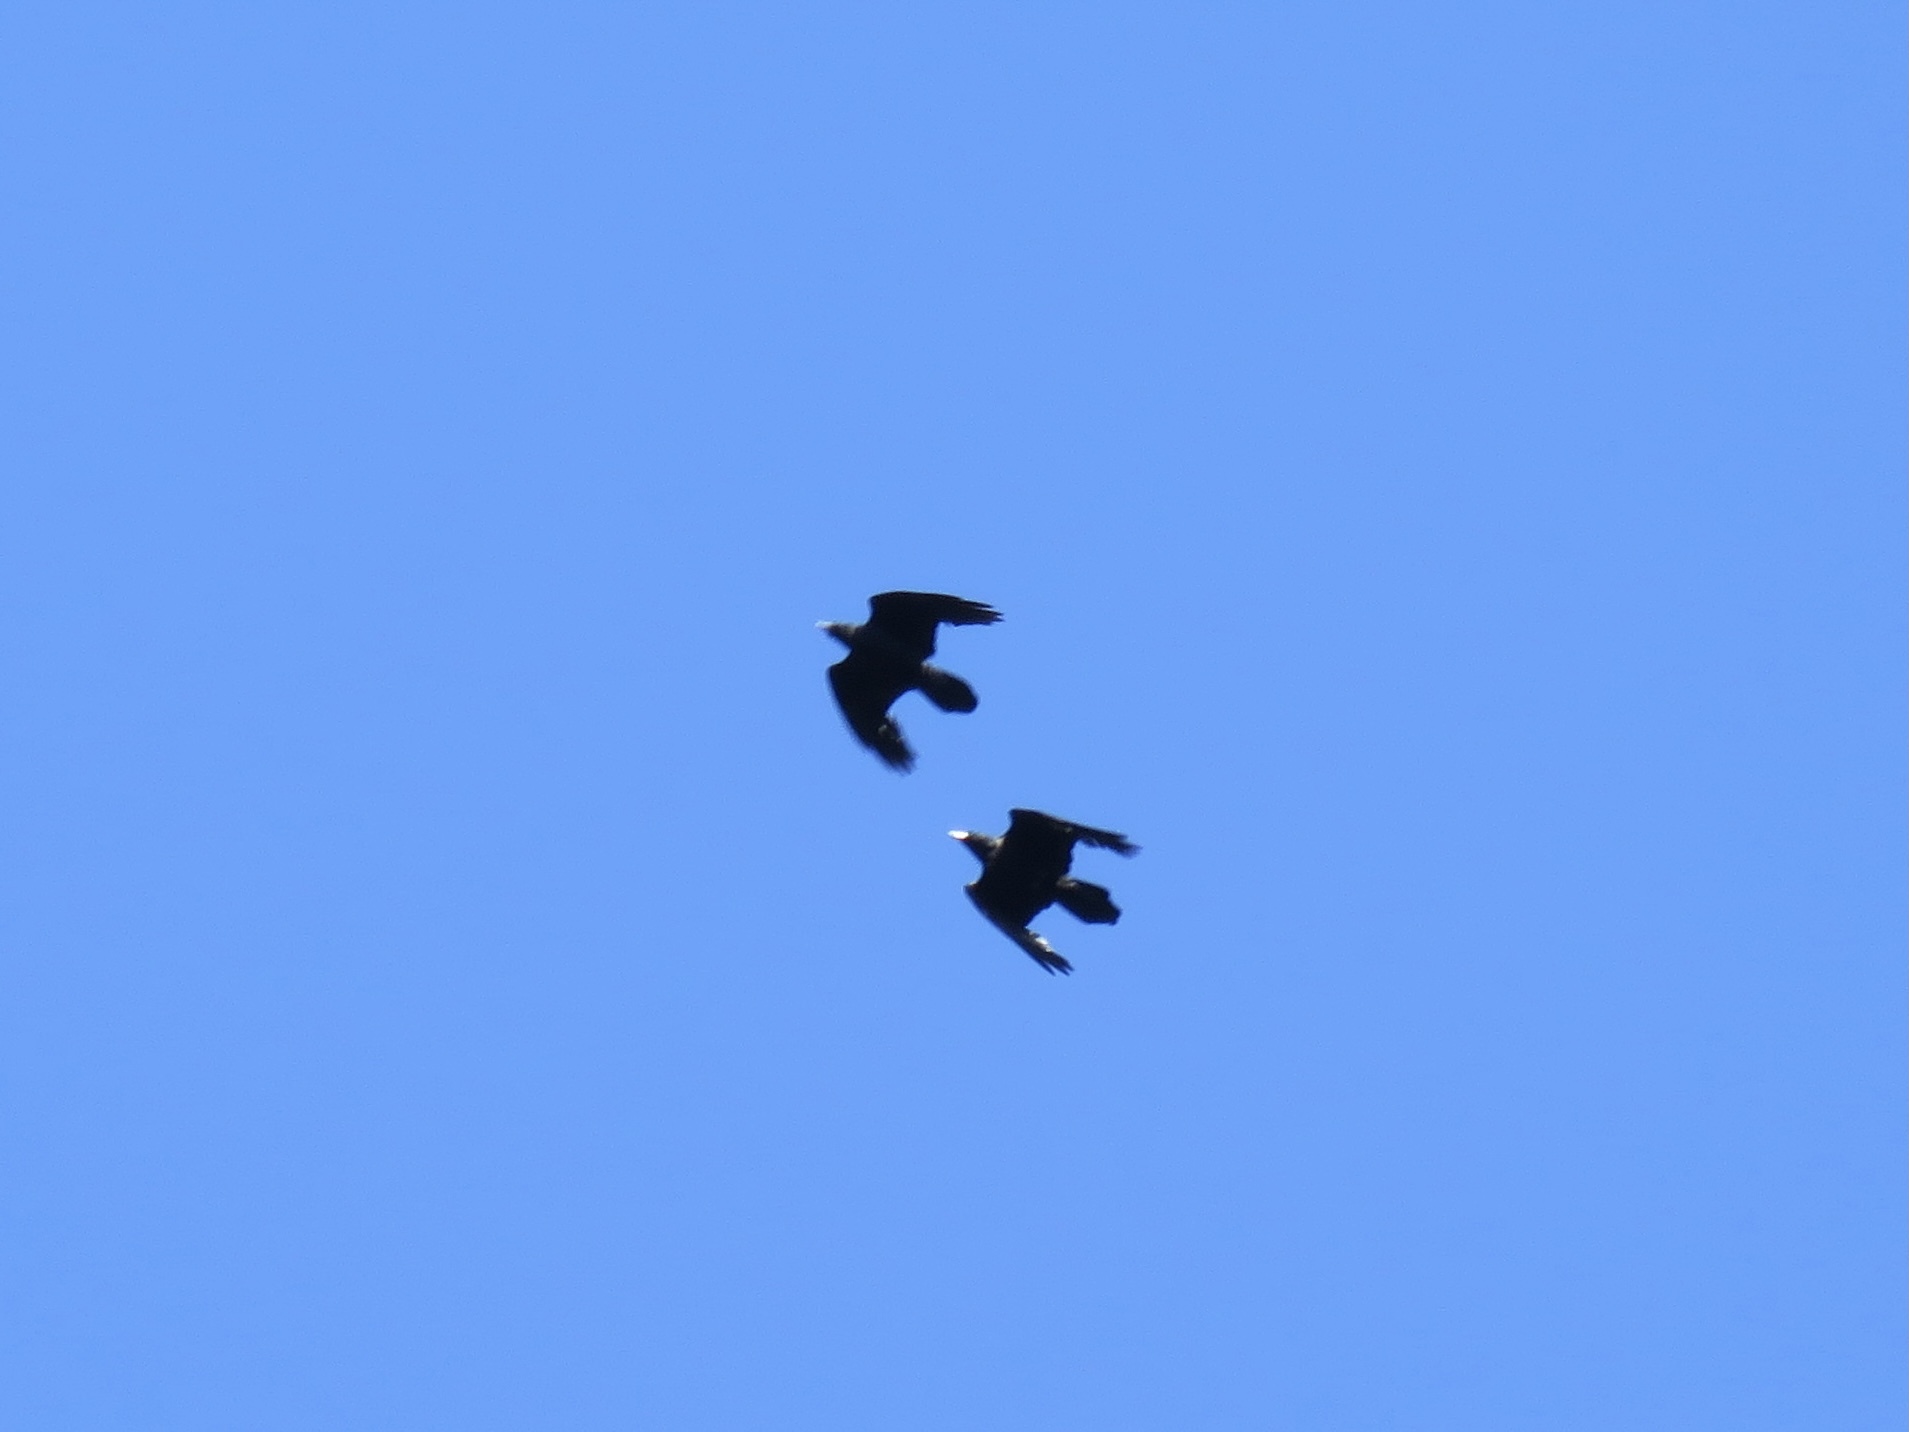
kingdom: Animalia
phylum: Chordata
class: Aves
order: Passeriformes
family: Corvidae
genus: Corvus
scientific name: Corvus corax
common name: Common raven
